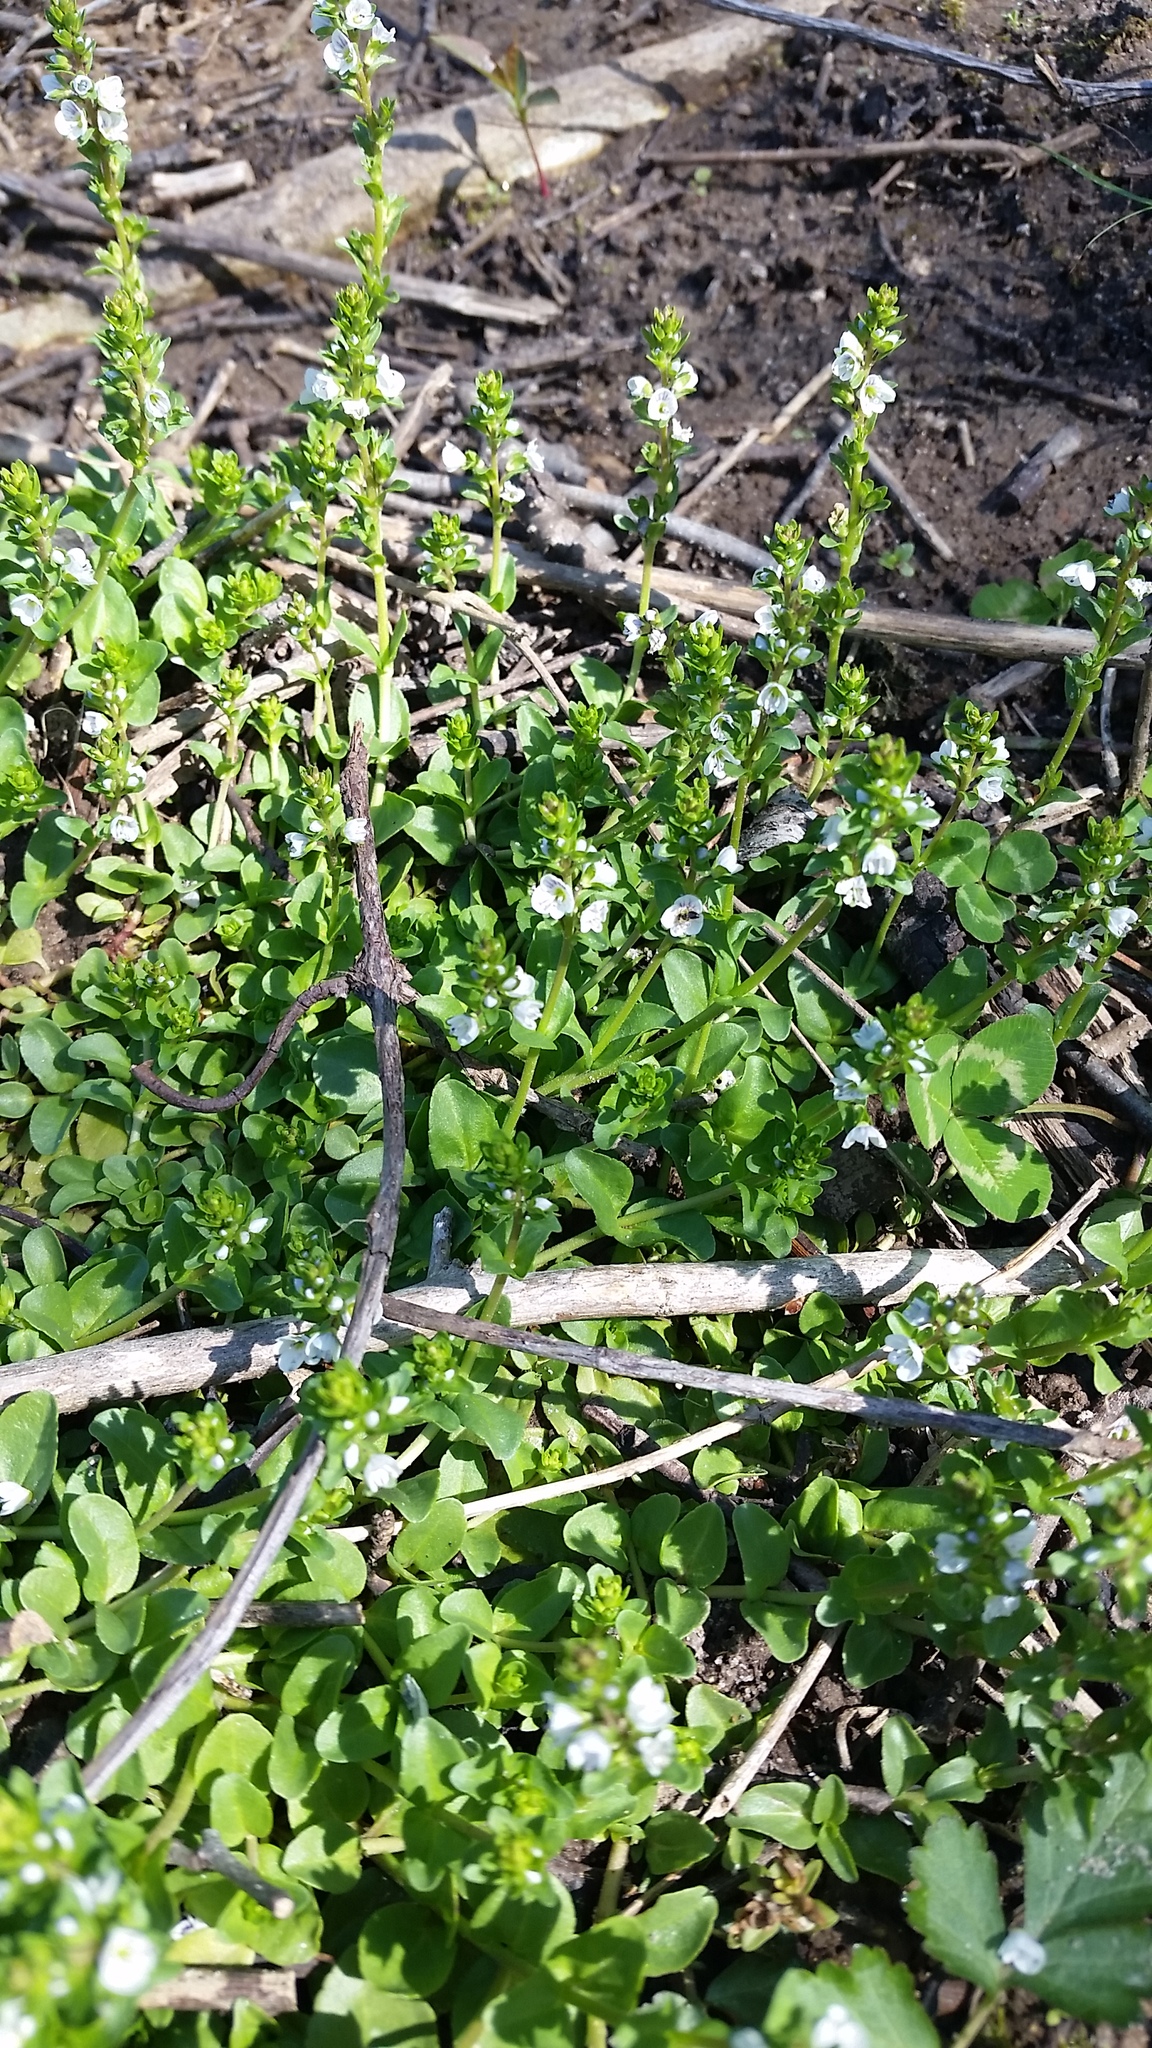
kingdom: Plantae
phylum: Tracheophyta
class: Magnoliopsida
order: Lamiales
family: Plantaginaceae
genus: Veronica
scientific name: Veronica serpyllifolia
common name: Thyme-leaved speedwell
